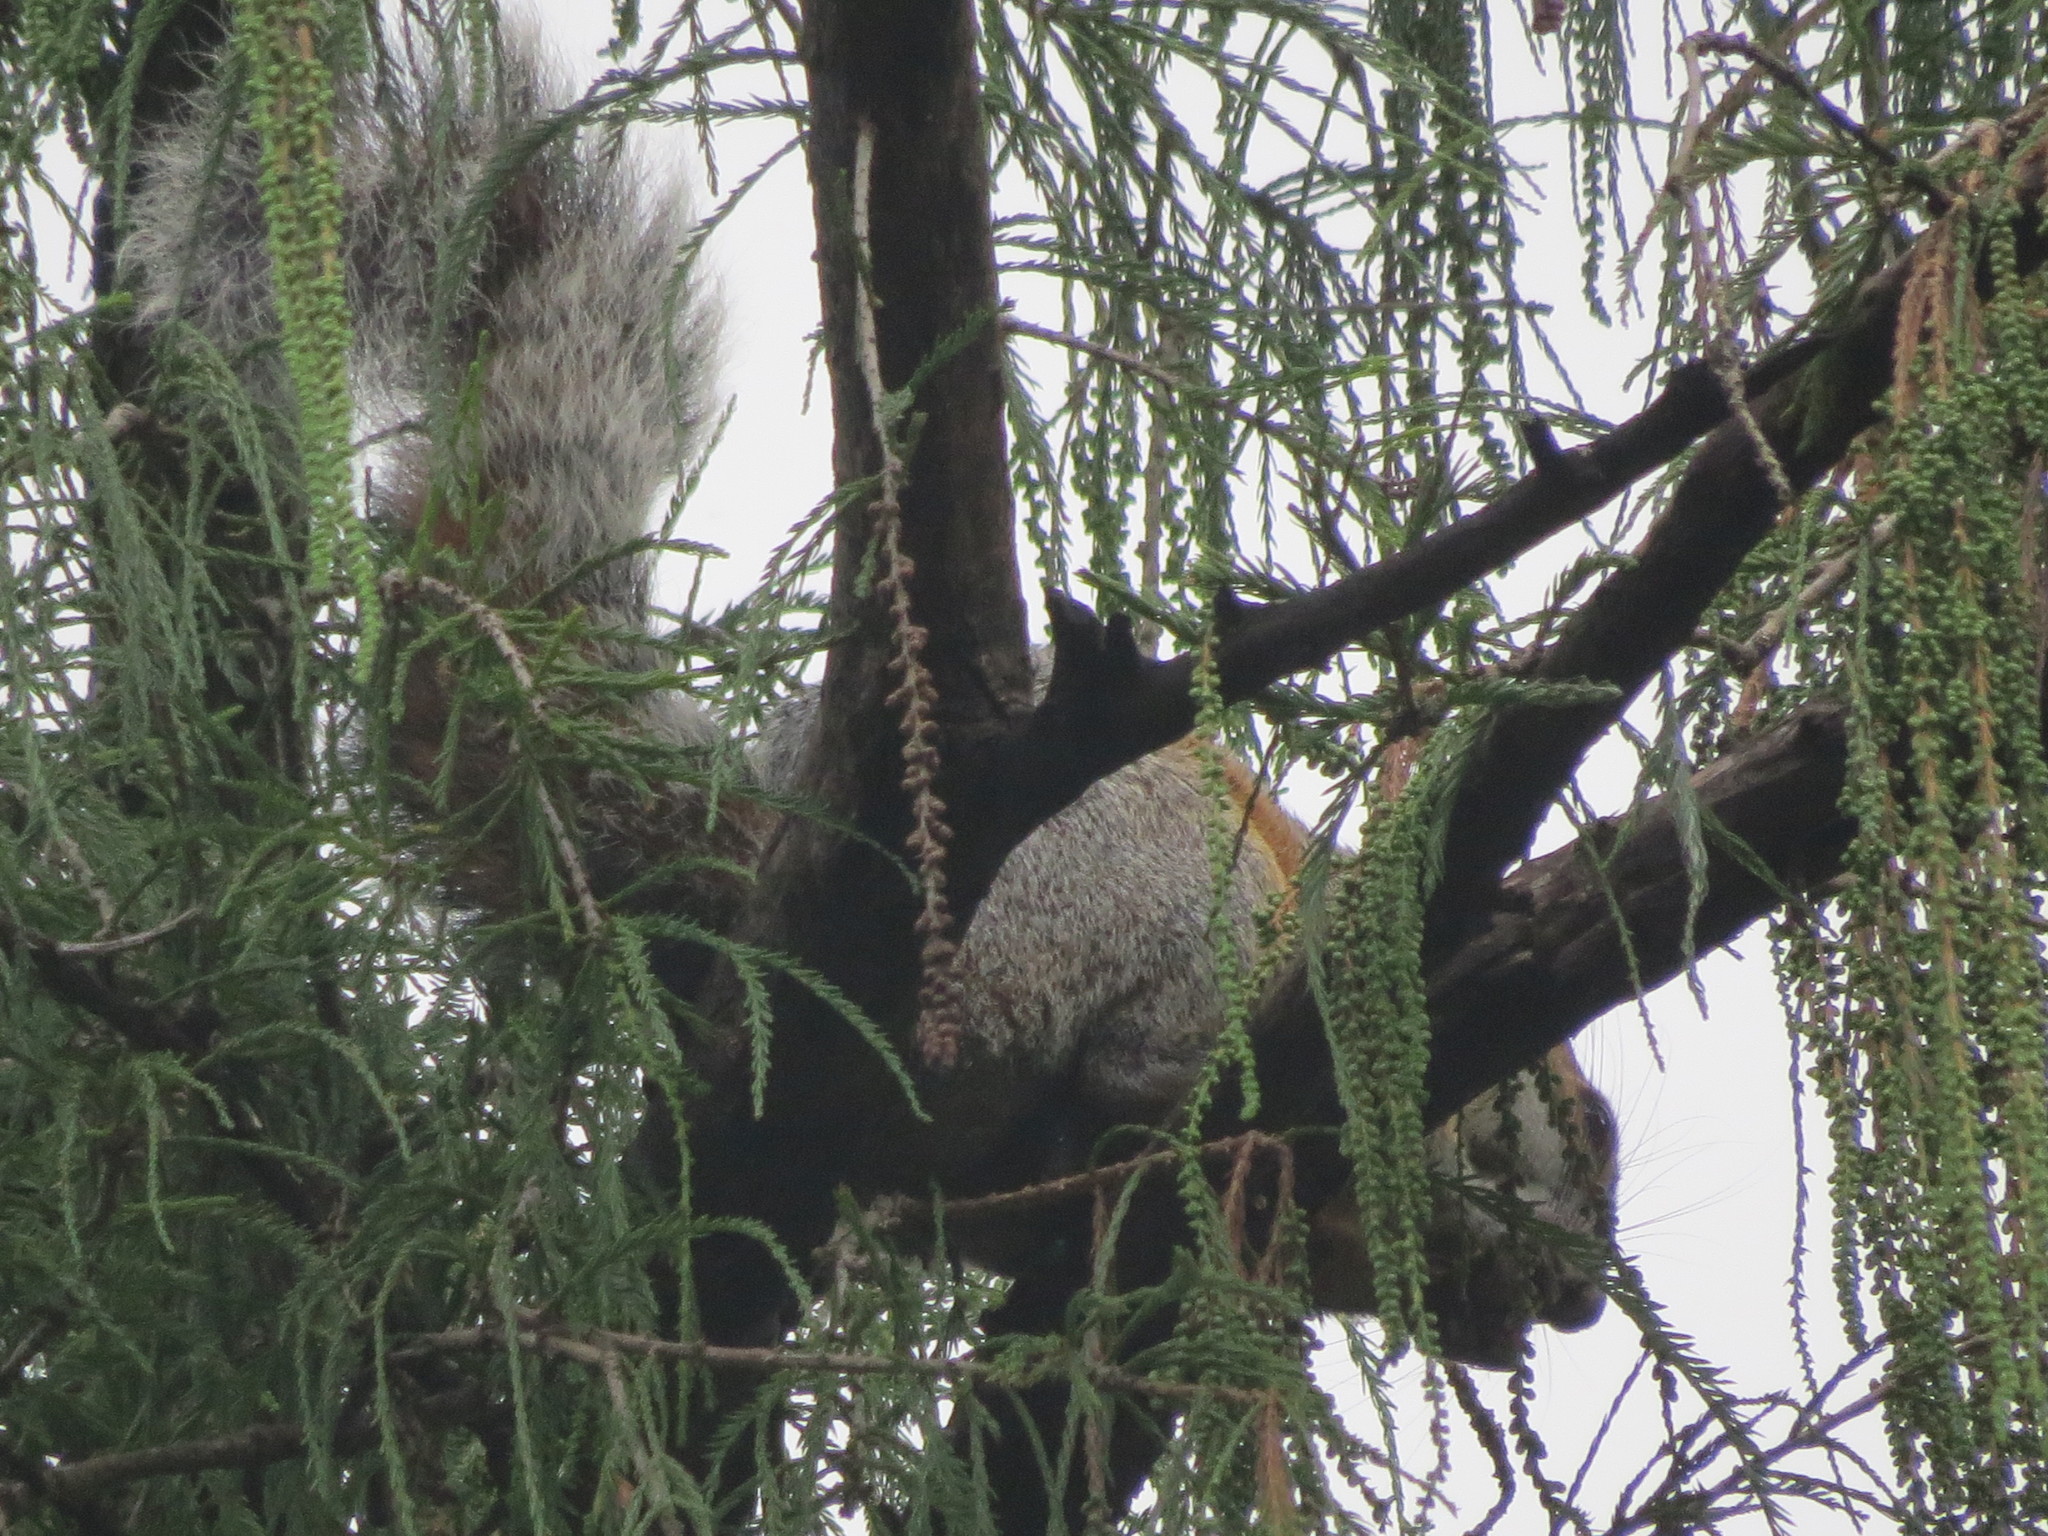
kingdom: Animalia
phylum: Chordata
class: Mammalia
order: Rodentia
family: Sciuridae
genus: Sciurus
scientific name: Sciurus aureogaster
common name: Red-bellied squirrel
